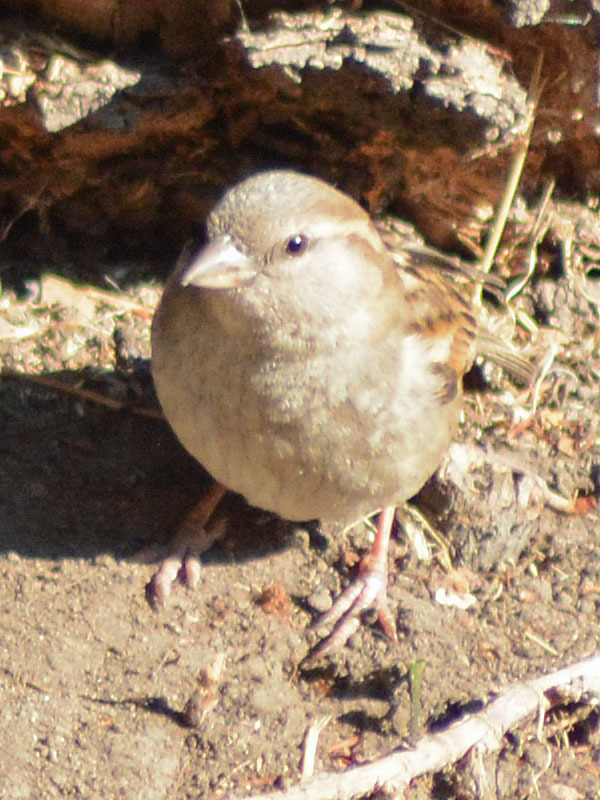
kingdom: Animalia
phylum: Chordata
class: Aves
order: Passeriformes
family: Passeridae
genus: Passer
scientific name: Passer domesticus
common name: House sparrow
